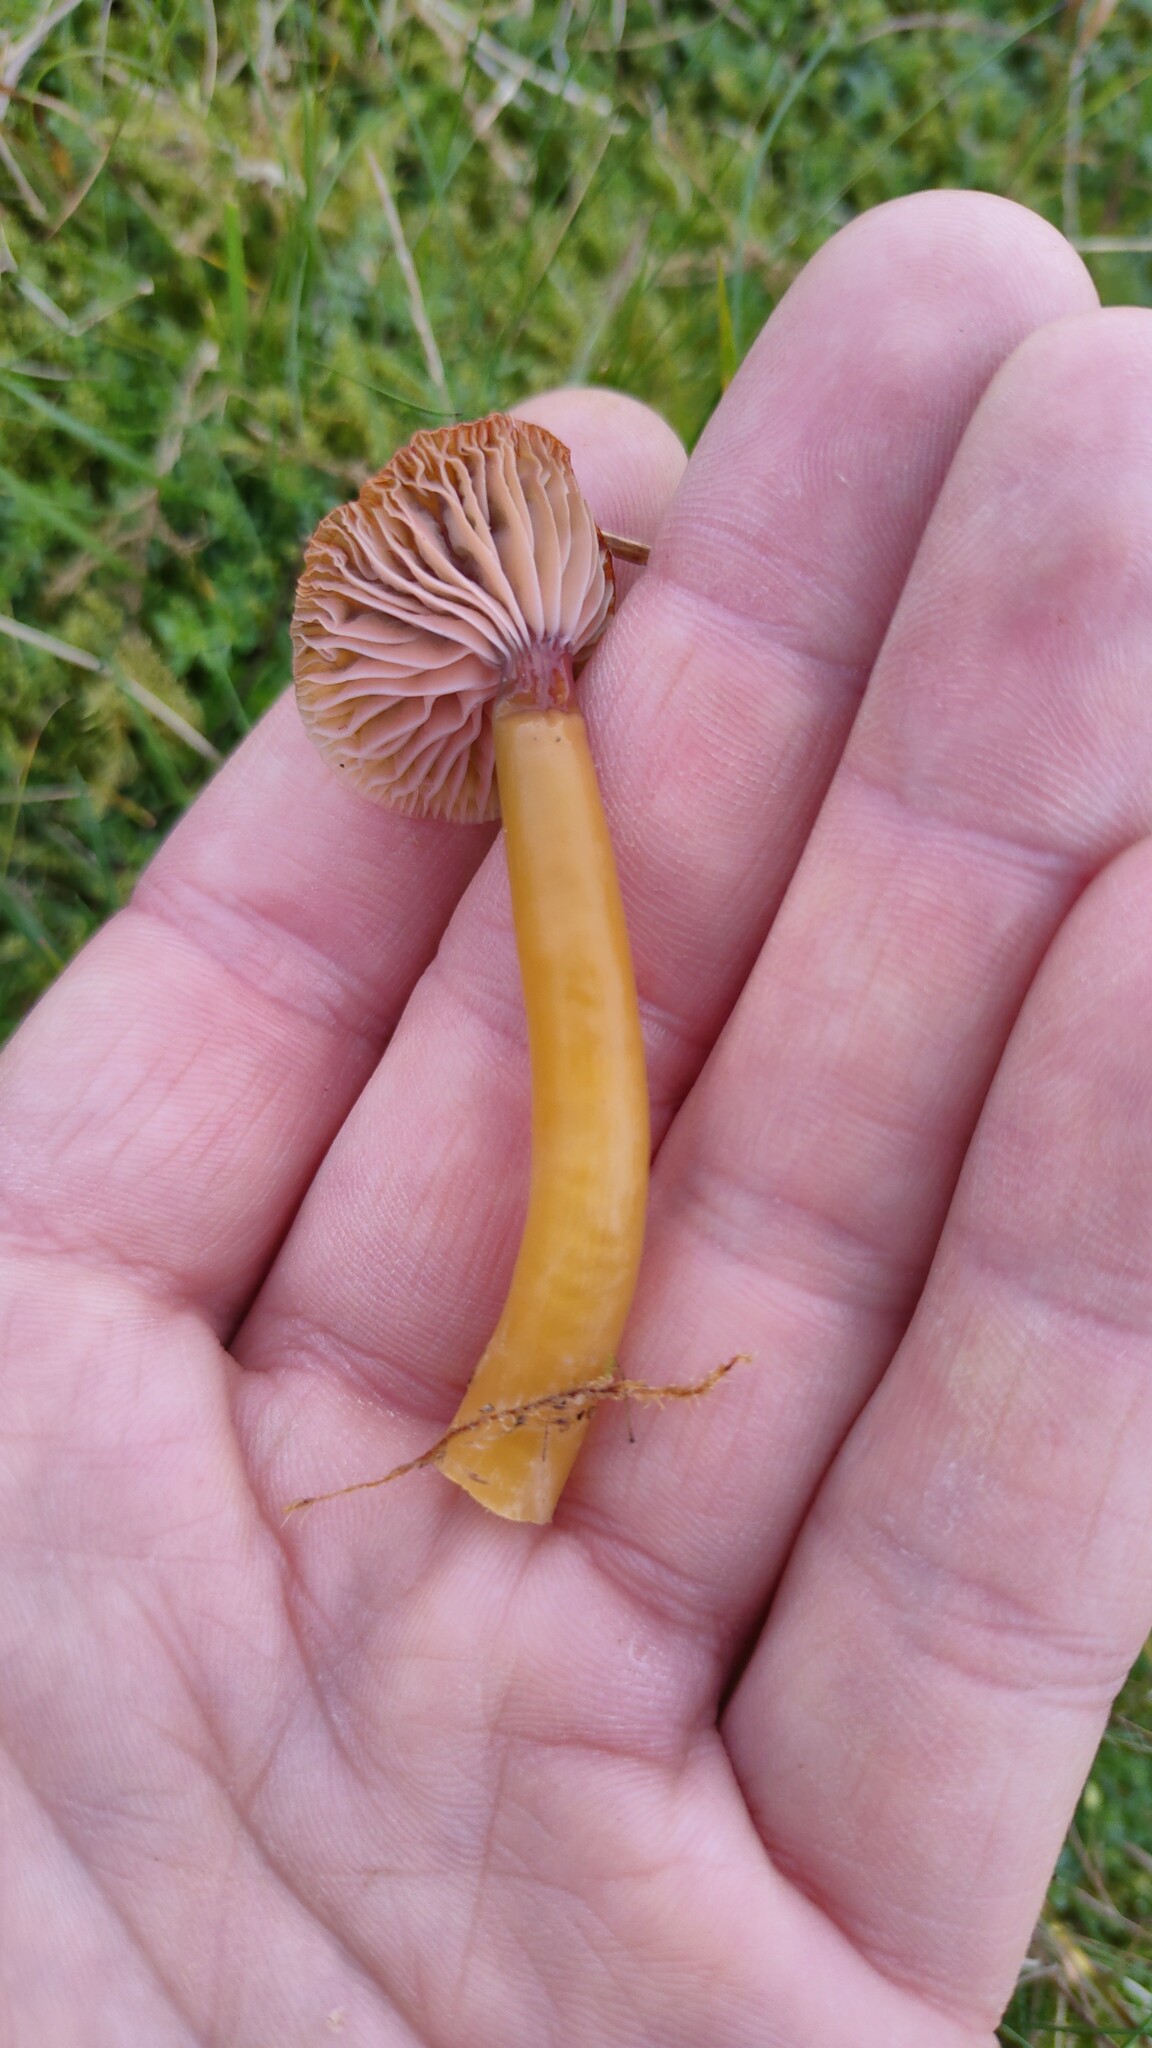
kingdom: Fungi
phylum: Basidiomycota
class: Agaricomycetes
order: Agaricales
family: Hygrophoraceae
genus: Gliophorus
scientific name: Gliophorus laetus
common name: Heath waxcap
